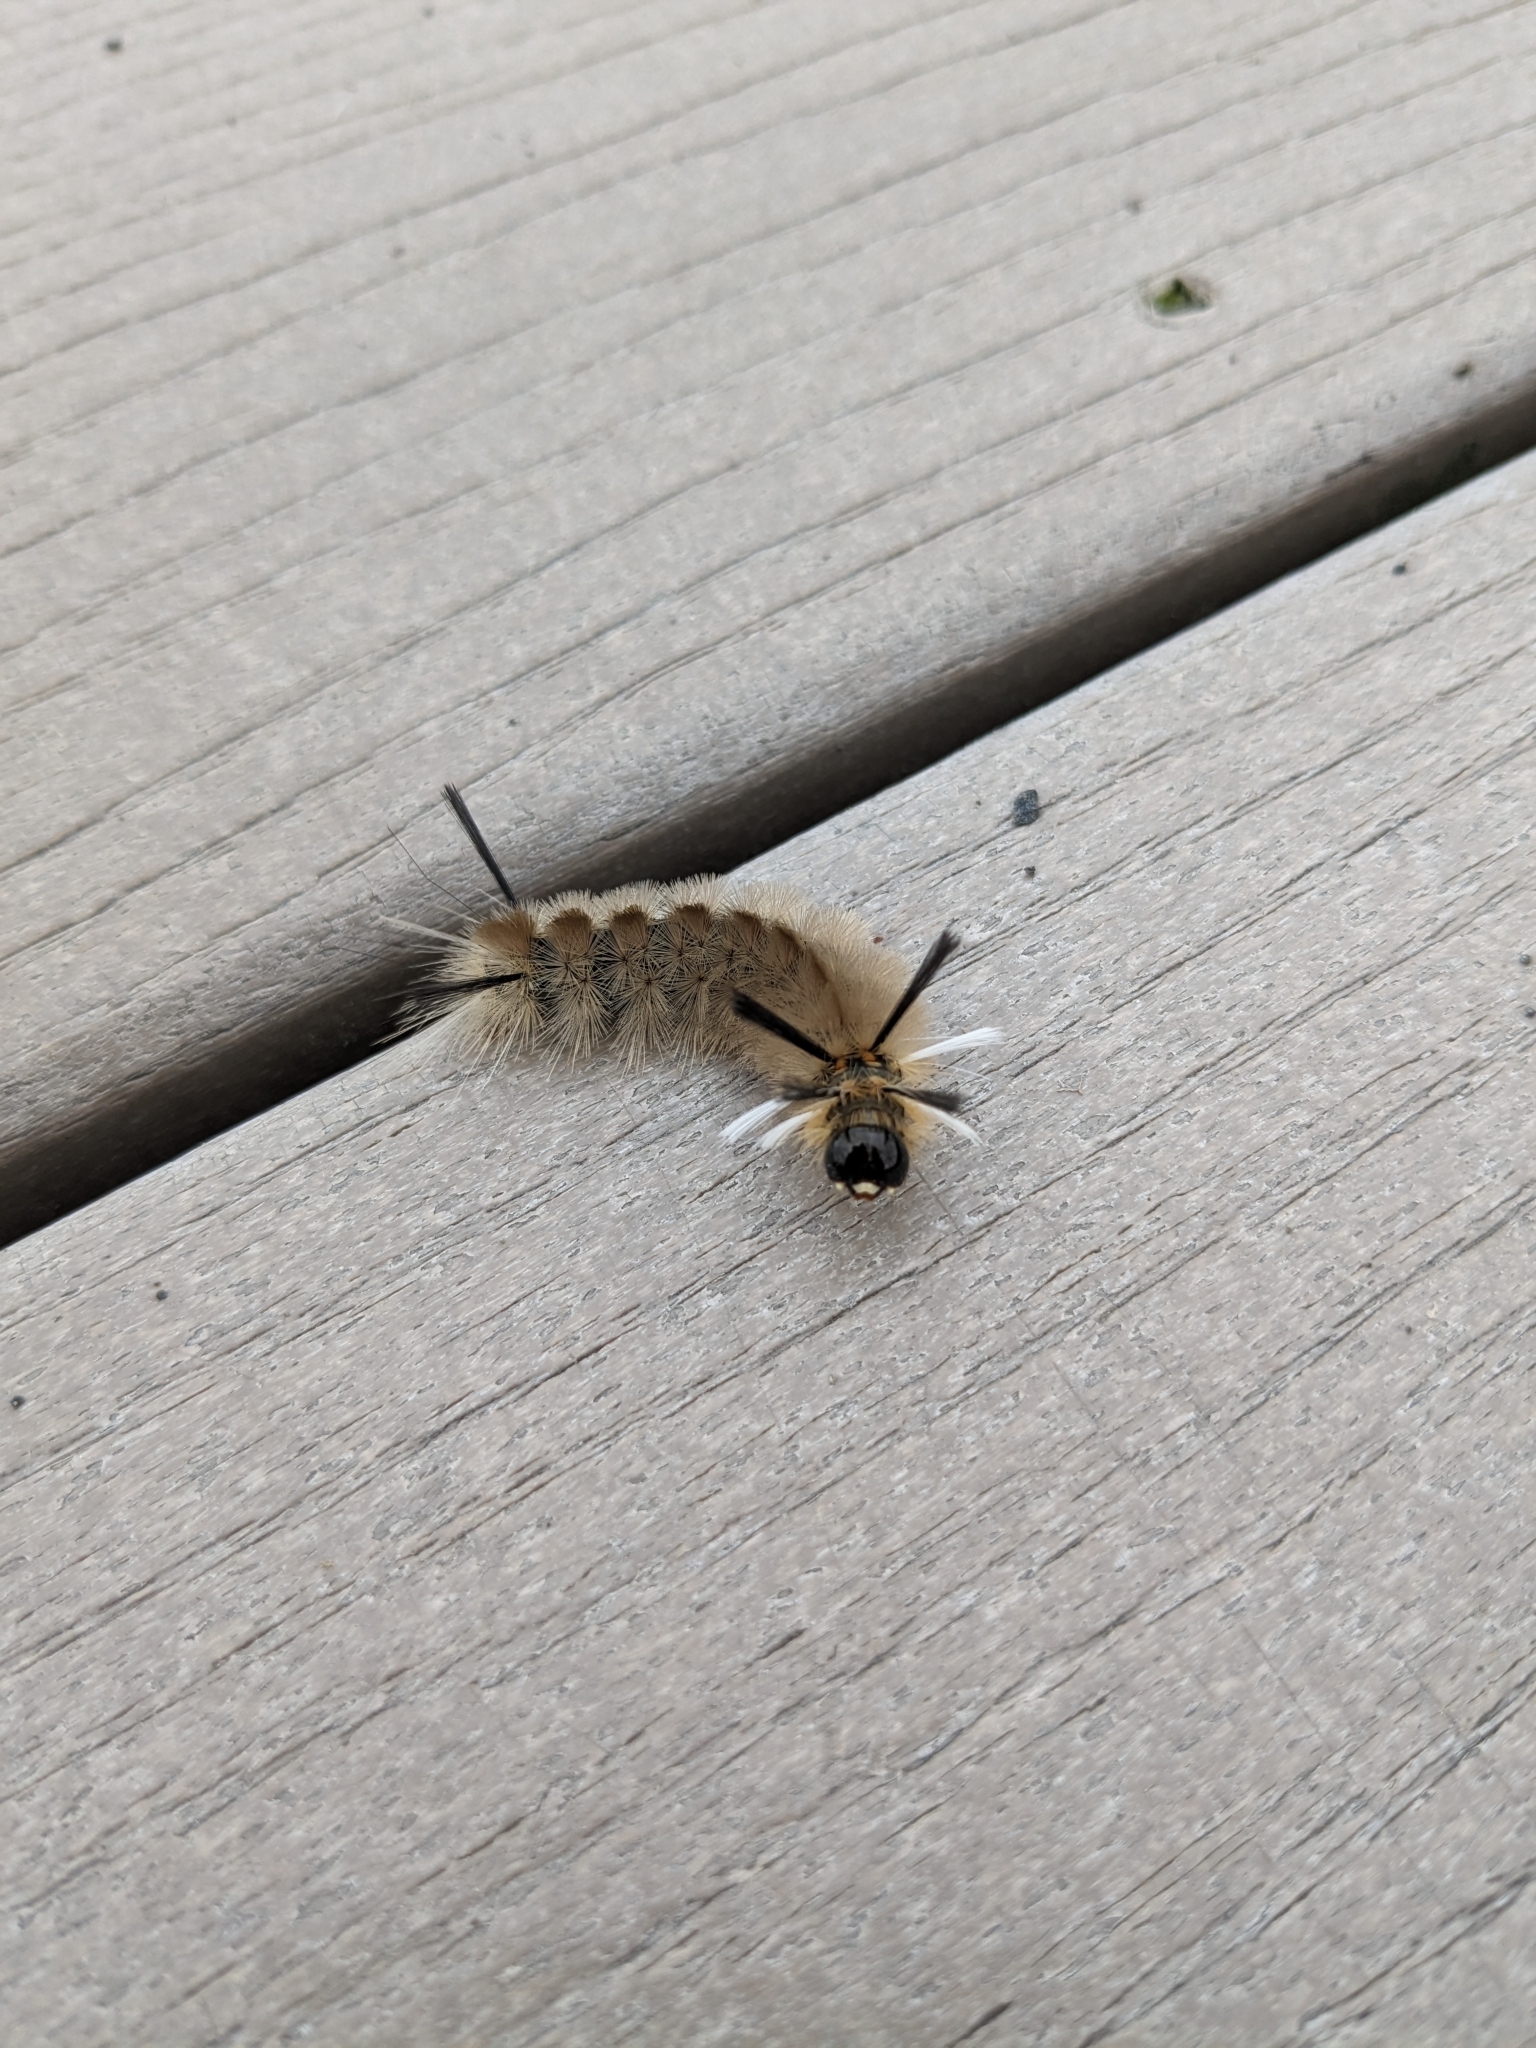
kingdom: Animalia
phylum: Arthropoda
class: Insecta
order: Lepidoptera
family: Erebidae
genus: Halysidota
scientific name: Halysidota tessellaris
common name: Banded tussock moth
